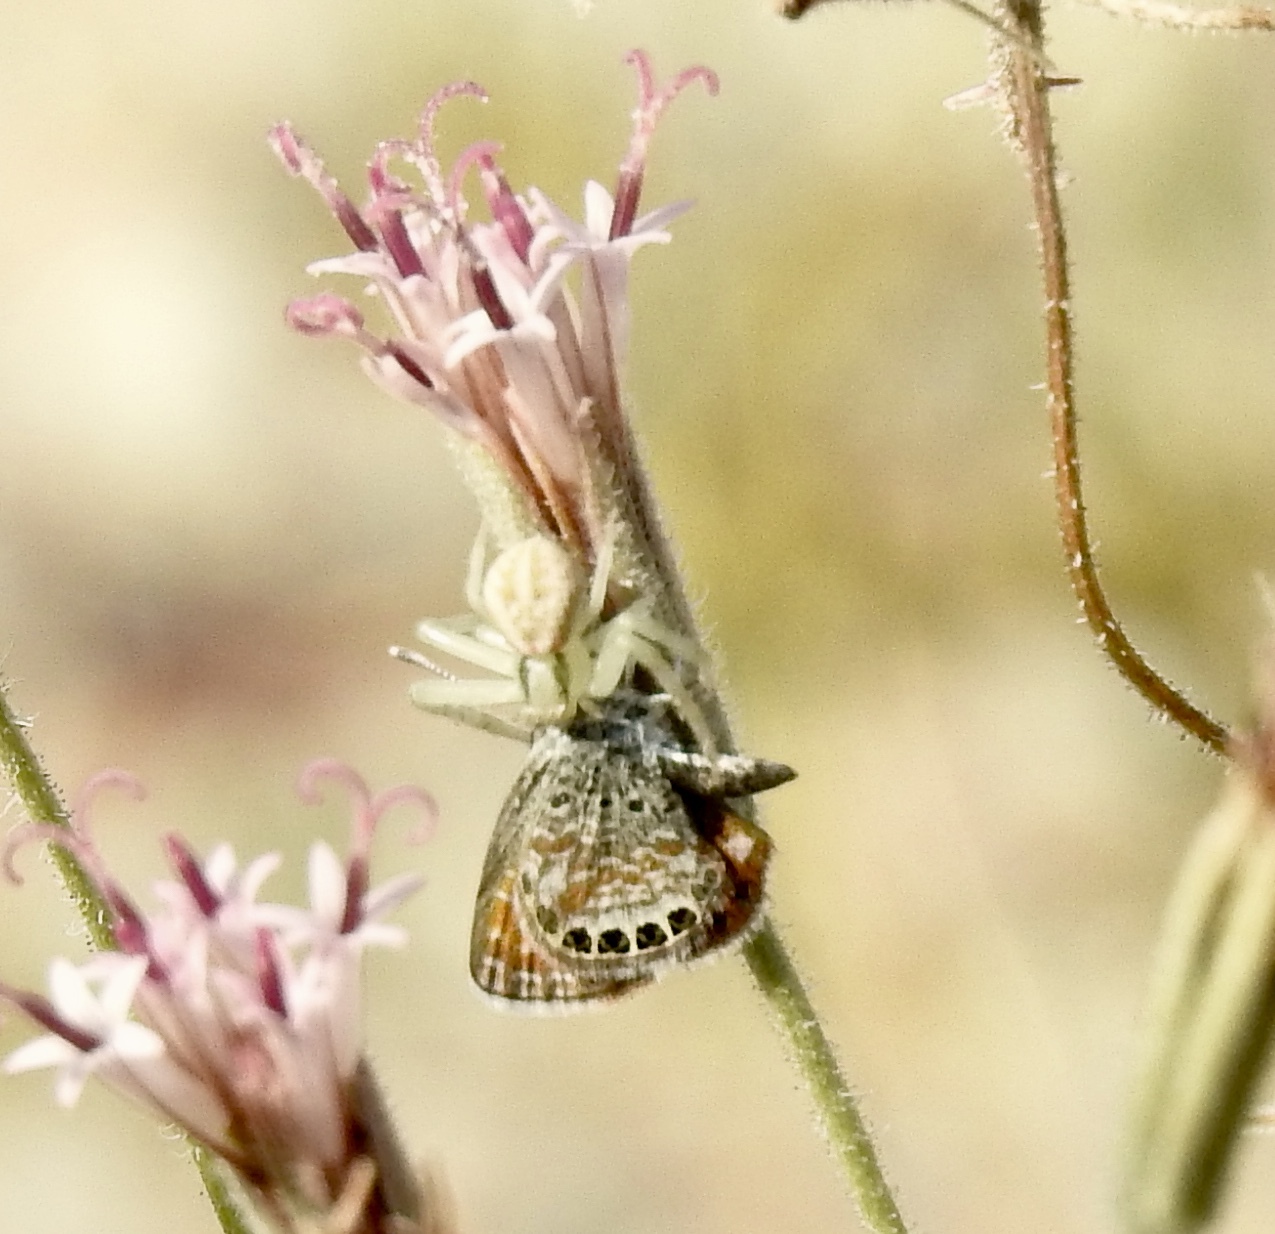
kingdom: Animalia
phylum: Arthropoda
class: Insecta
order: Lepidoptera
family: Lycaenidae
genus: Brephidium
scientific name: Brephidium exilis
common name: Pygmy blue
